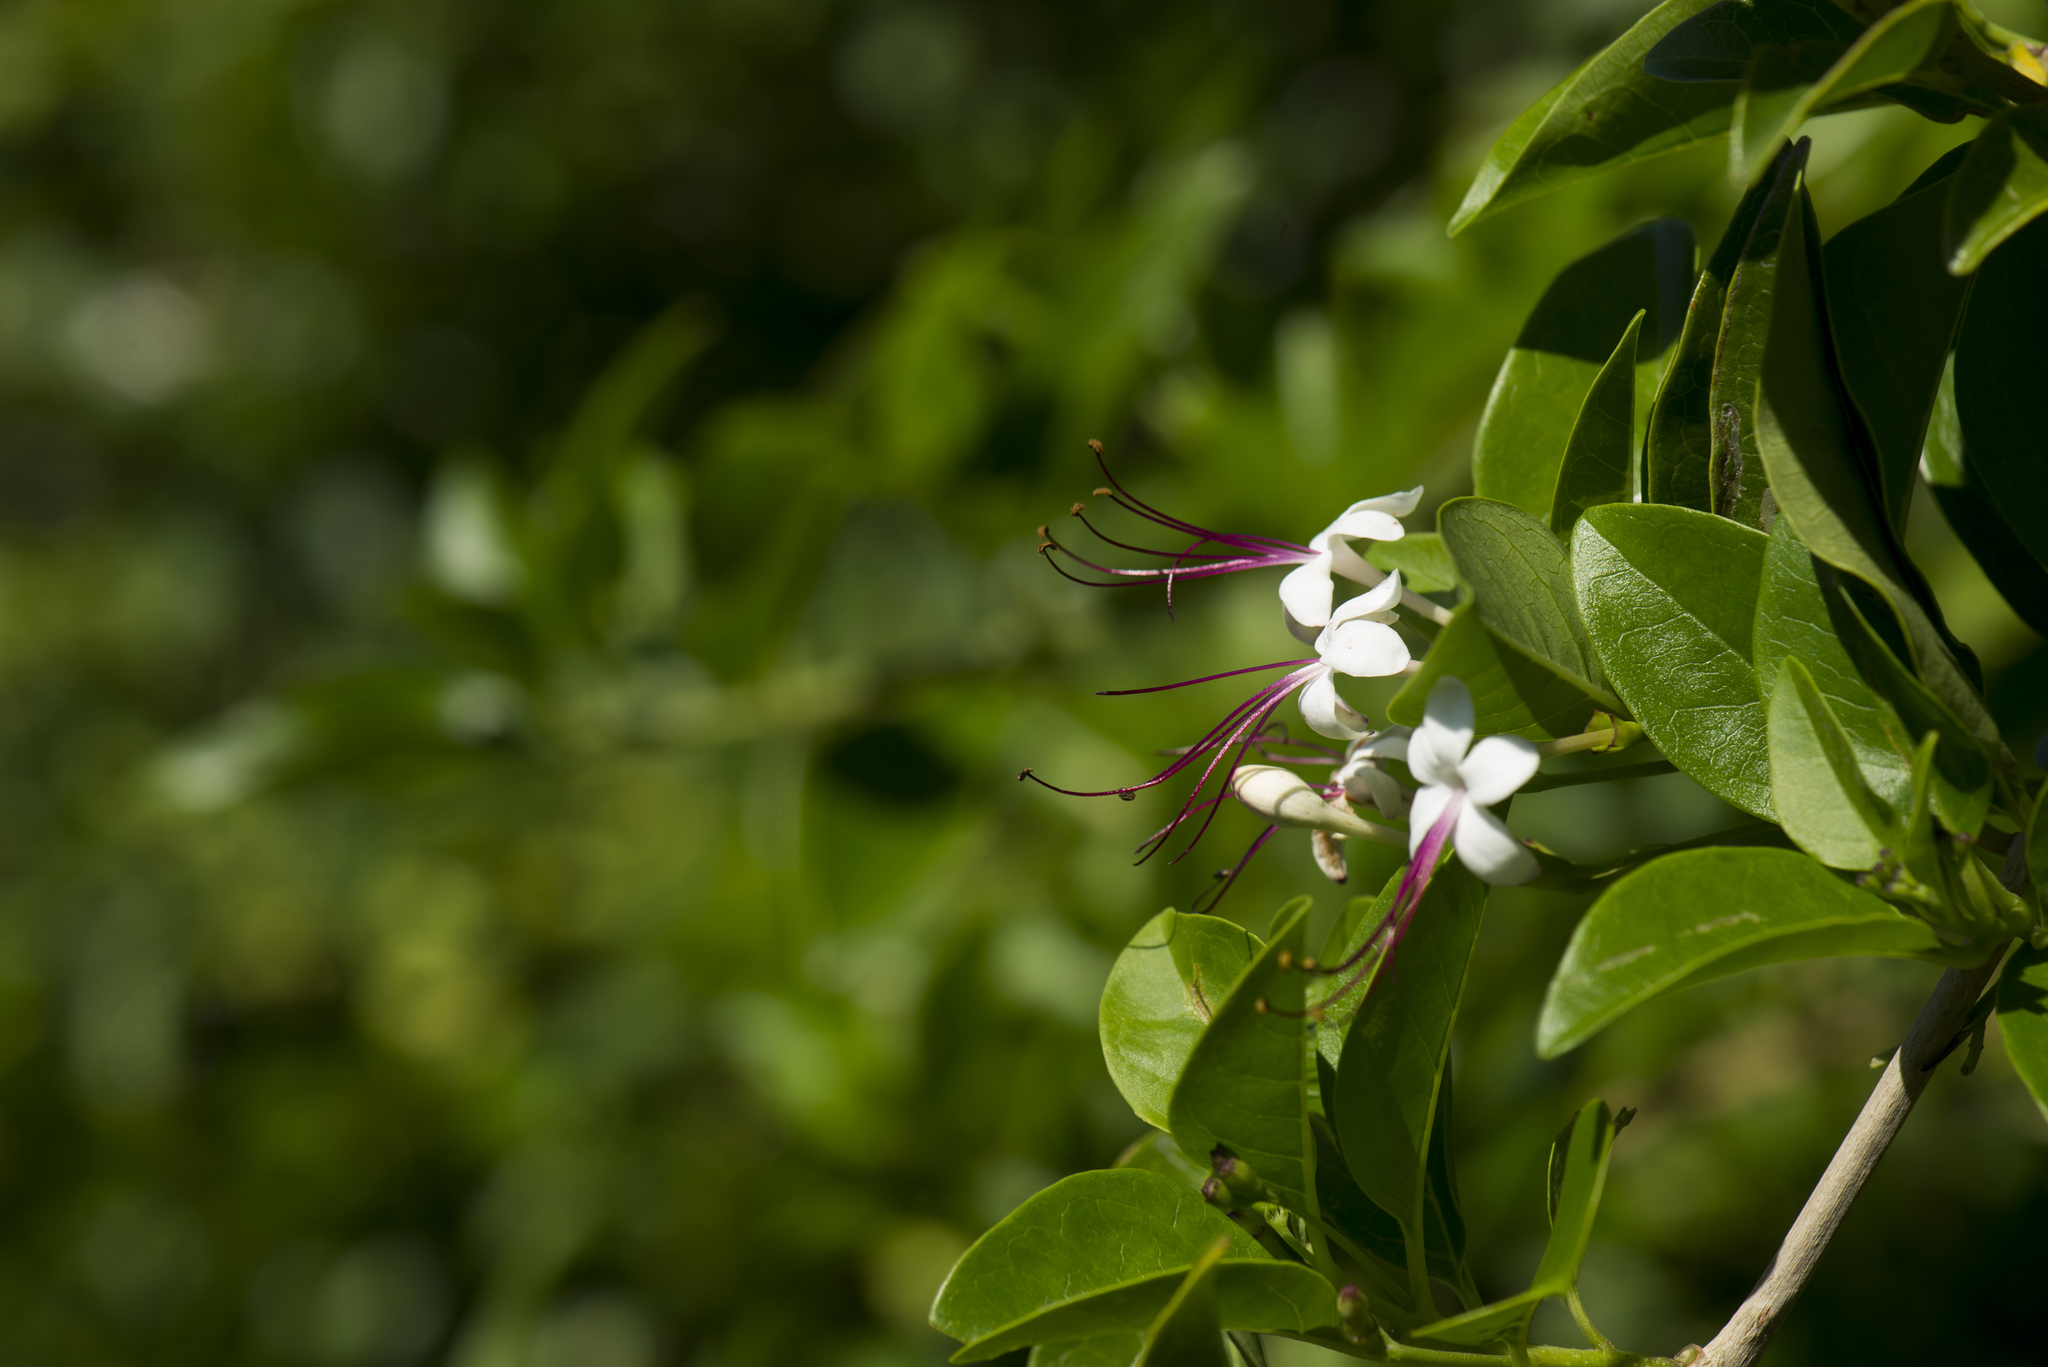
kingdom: Plantae
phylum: Tracheophyta
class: Magnoliopsida
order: Lamiales
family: Lamiaceae
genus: Volkameria
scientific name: Volkameria inermis
